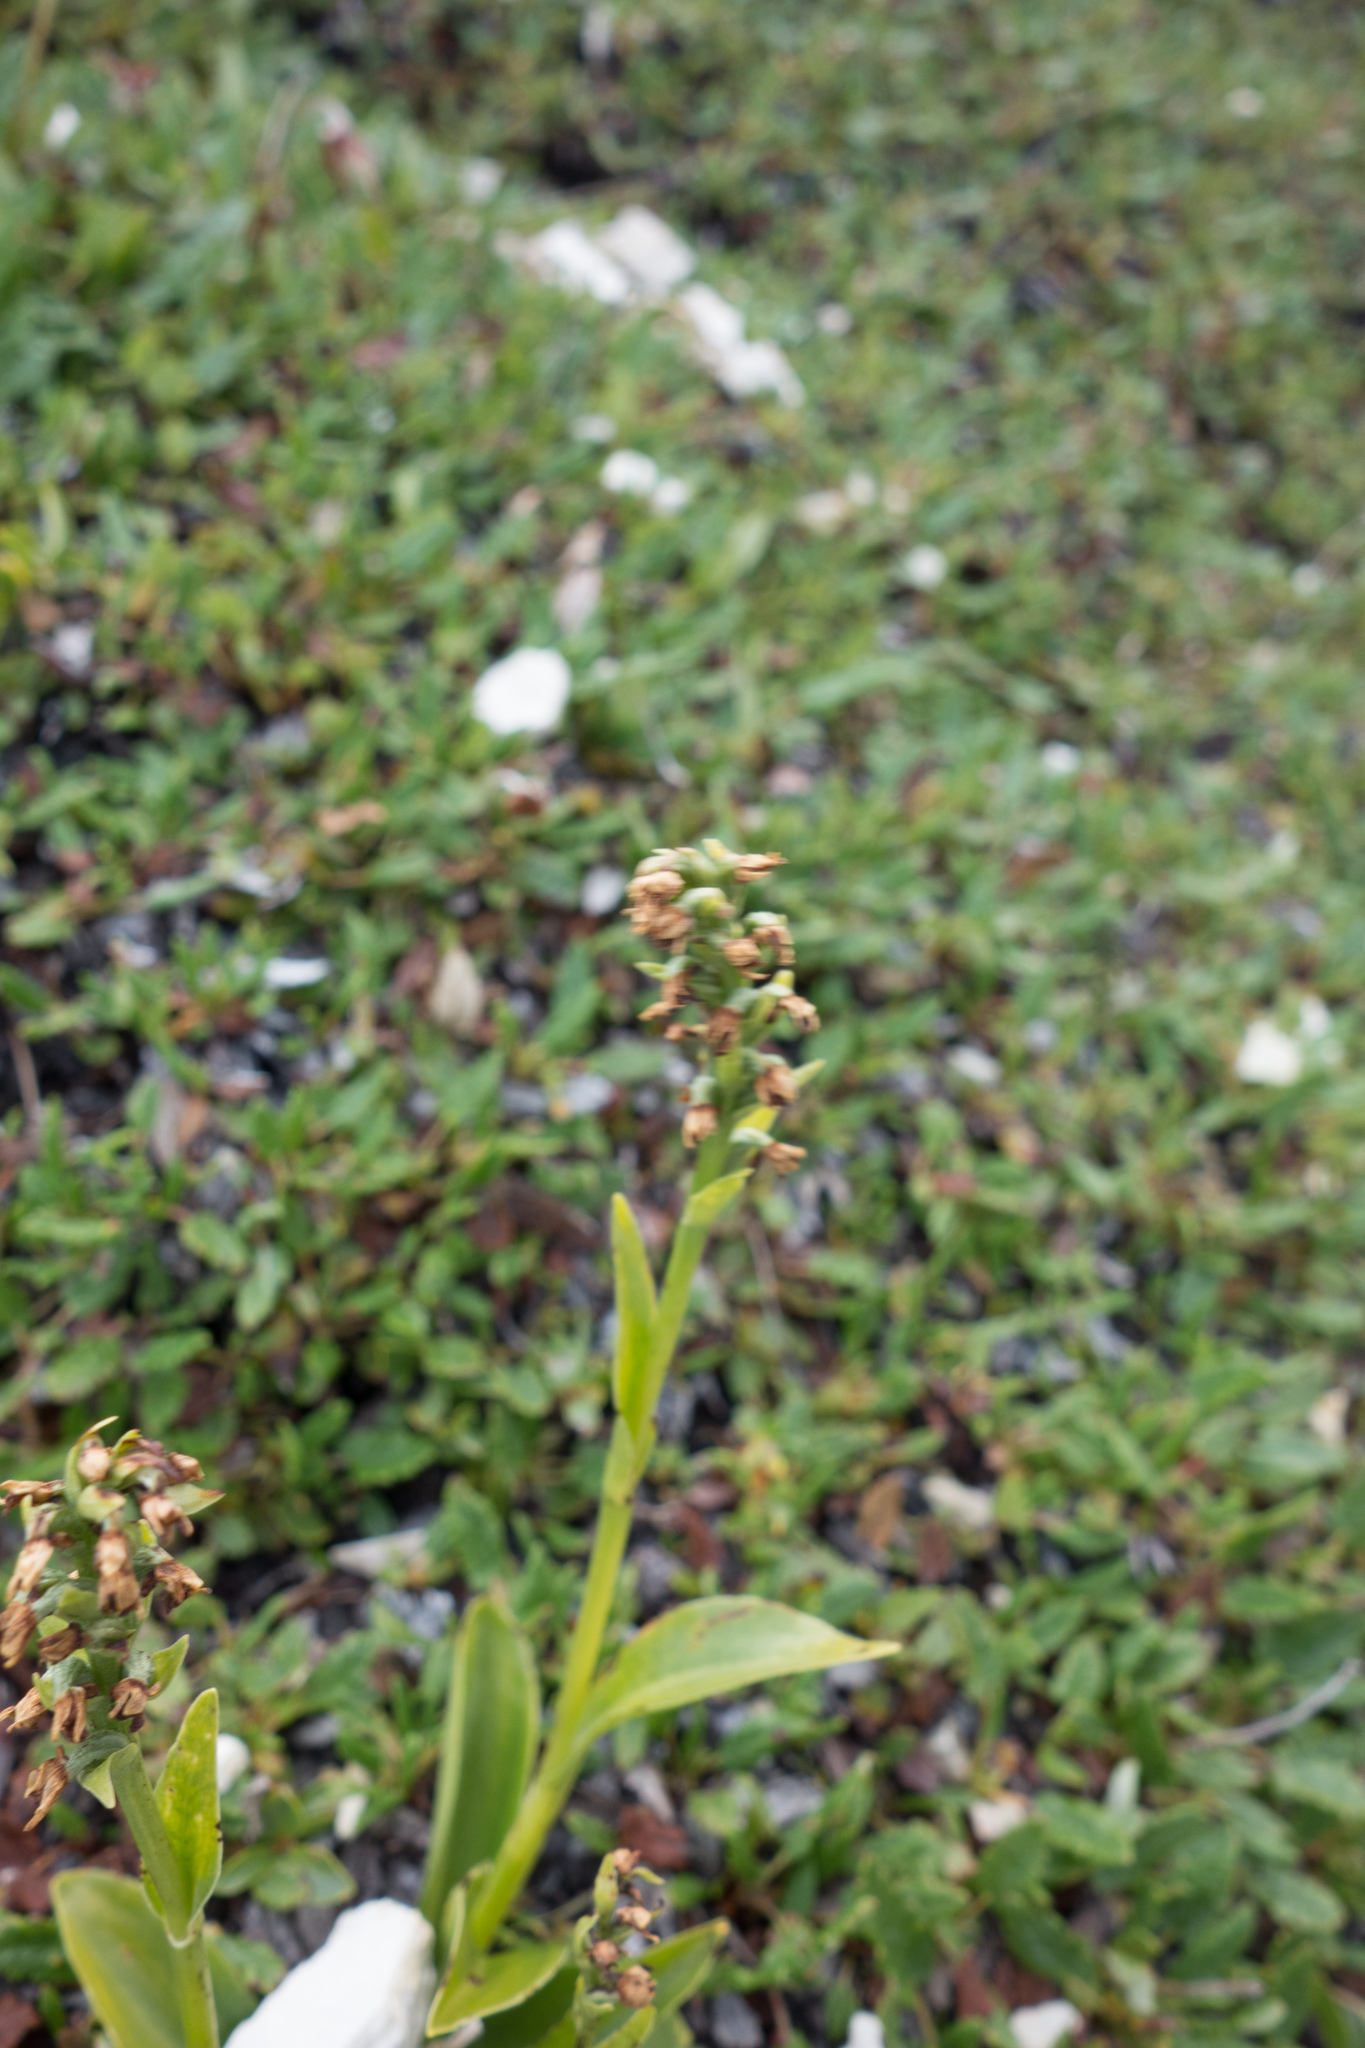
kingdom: Plantae
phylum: Tracheophyta
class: Liliopsida
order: Asparagales
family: Orchidaceae
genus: Dactylorhiza
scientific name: Dactylorhiza viridis
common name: Longbract frog orchid
